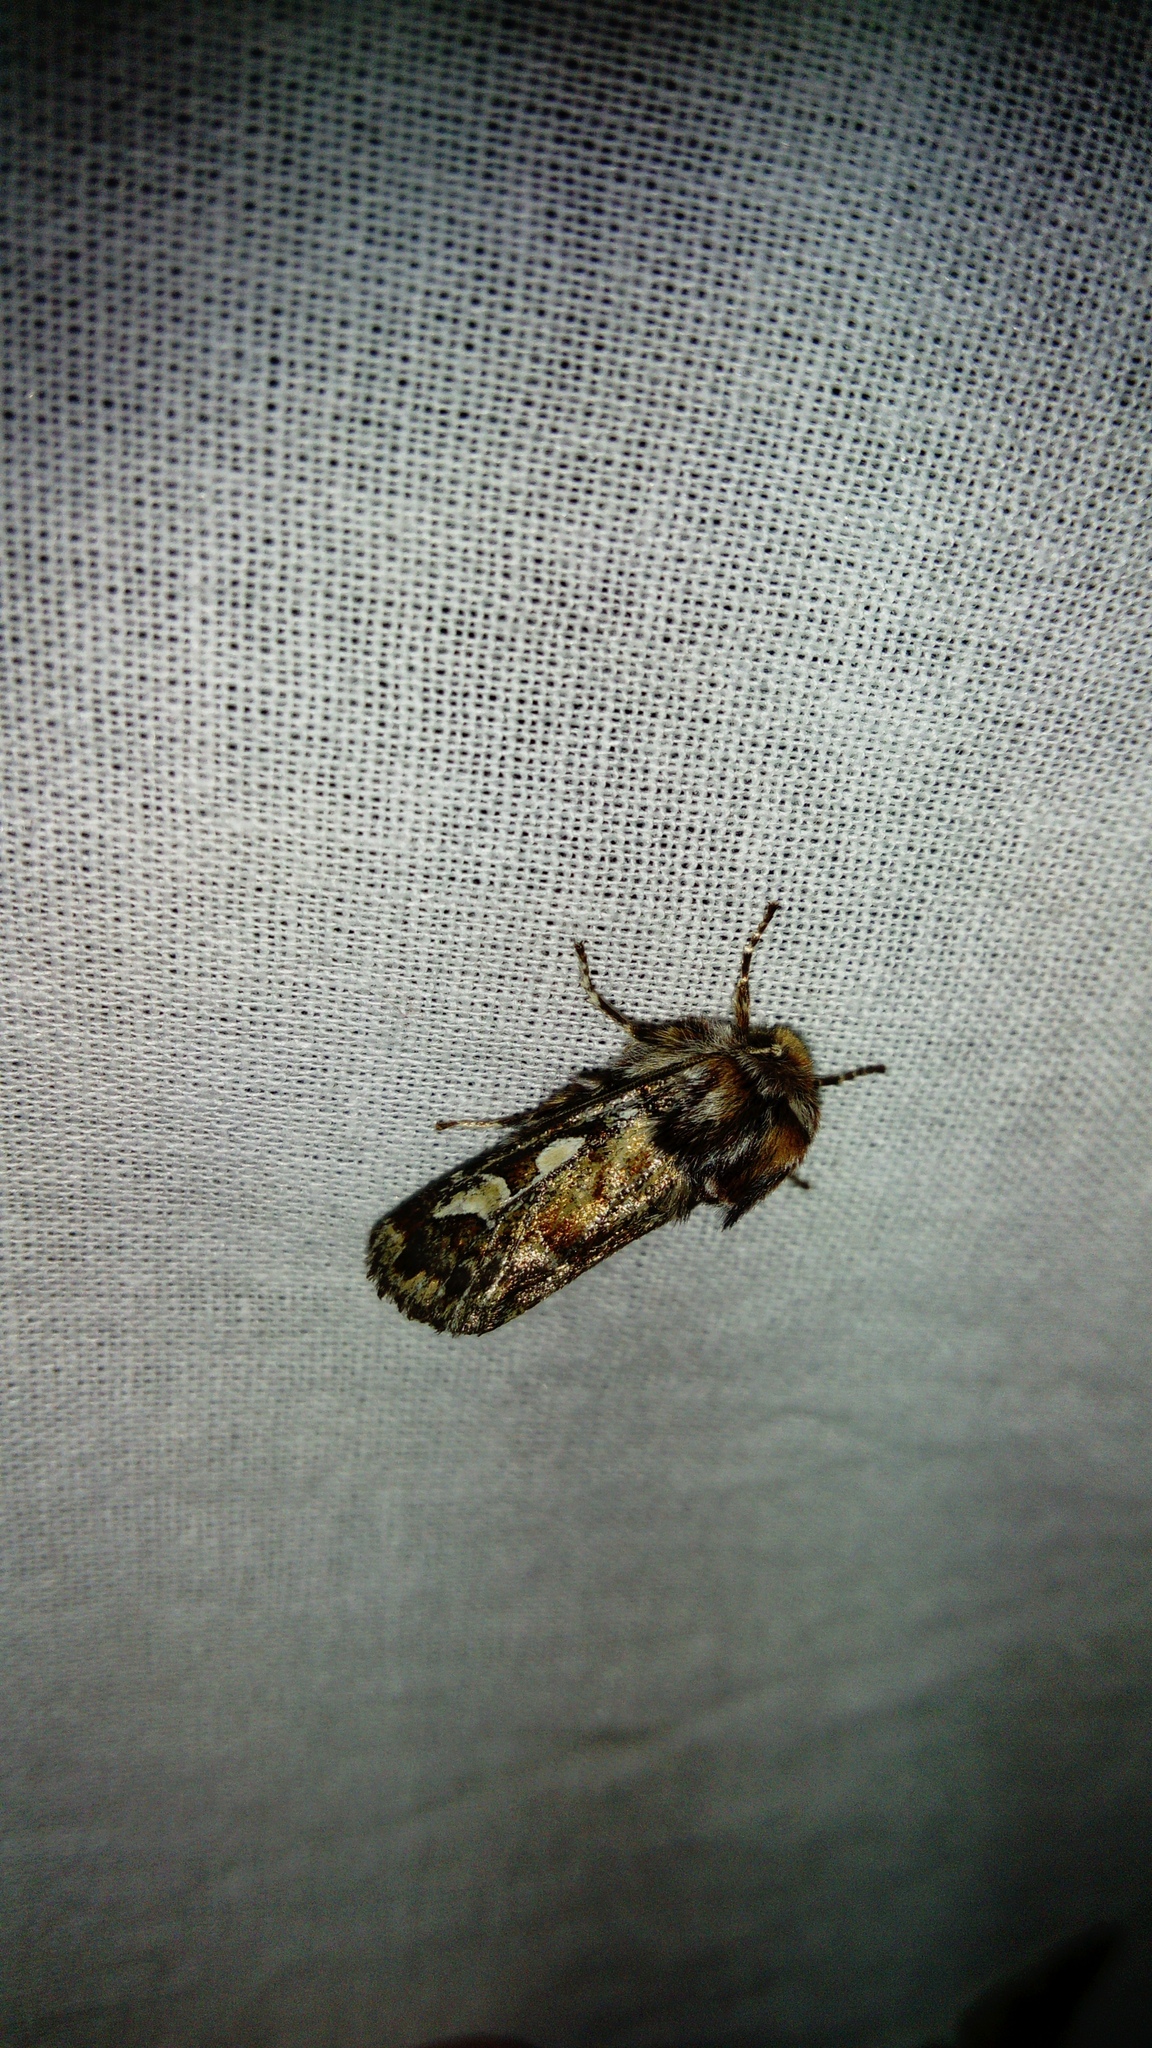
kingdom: Animalia
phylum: Arthropoda
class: Insecta
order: Lepidoptera
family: Noctuidae
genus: Panolis
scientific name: Panolis flammea
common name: Pine beauty
